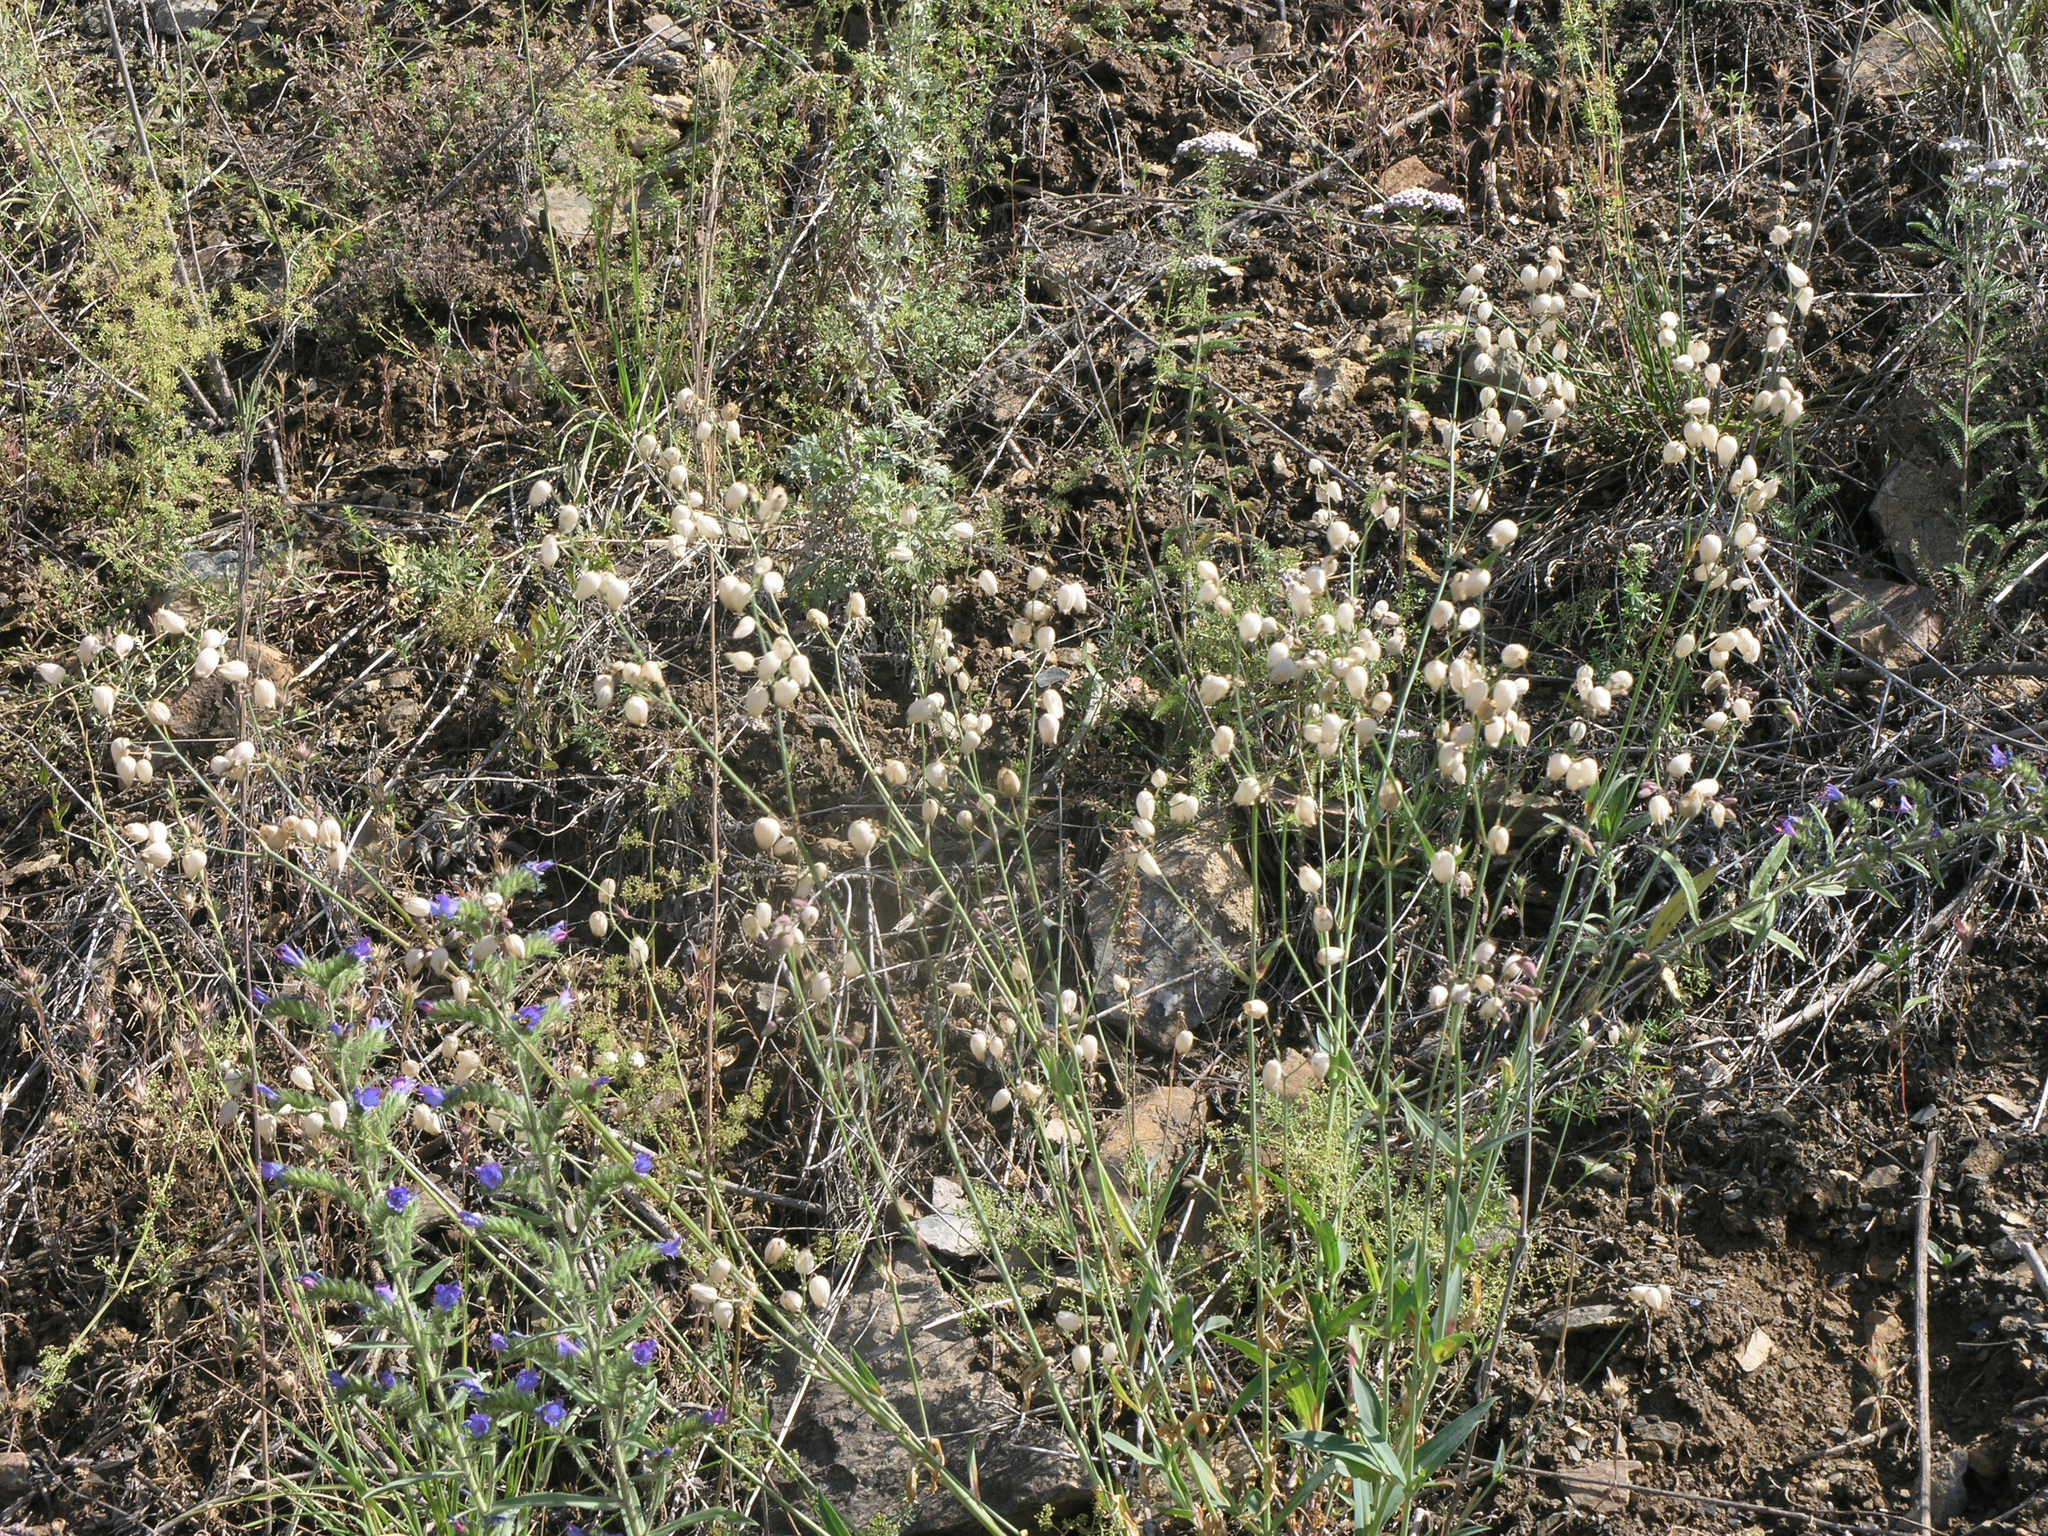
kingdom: Plantae
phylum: Tracheophyta
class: Magnoliopsida
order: Caryophyllales
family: Caryophyllaceae
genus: Silene
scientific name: Silene vulgaris
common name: Bladder campion
